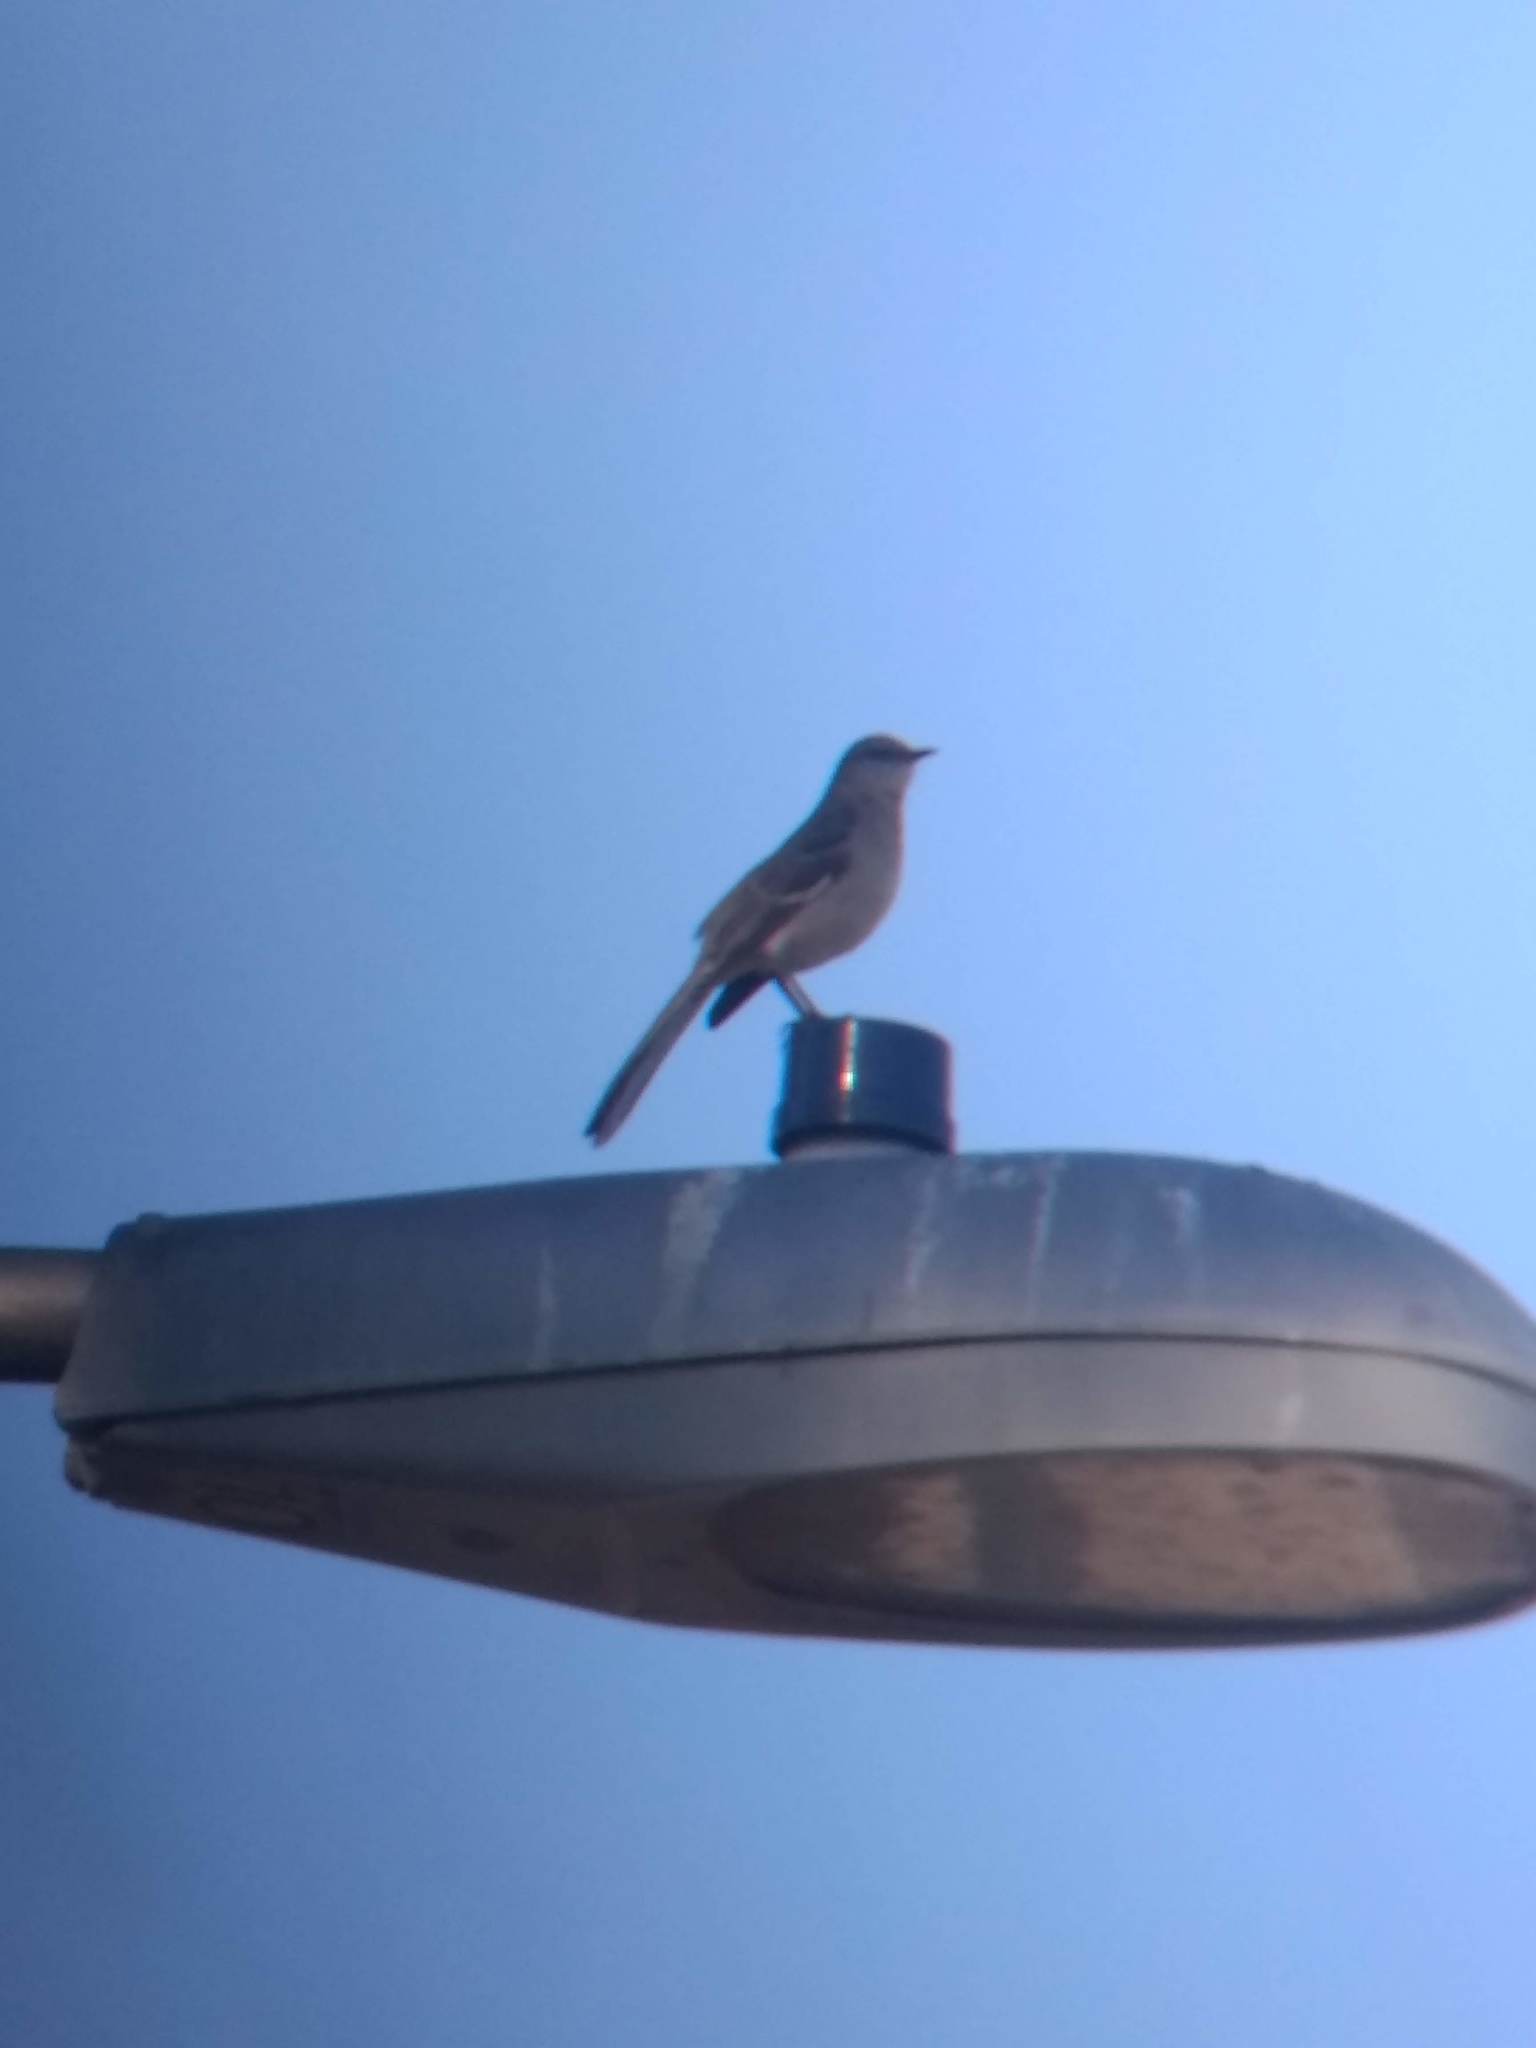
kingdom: Animalia
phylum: Chordata
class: Aves
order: Passeriformes
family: Mimidae
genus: Mimus
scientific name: Mimus polyglottos
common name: Northern mockingbird
